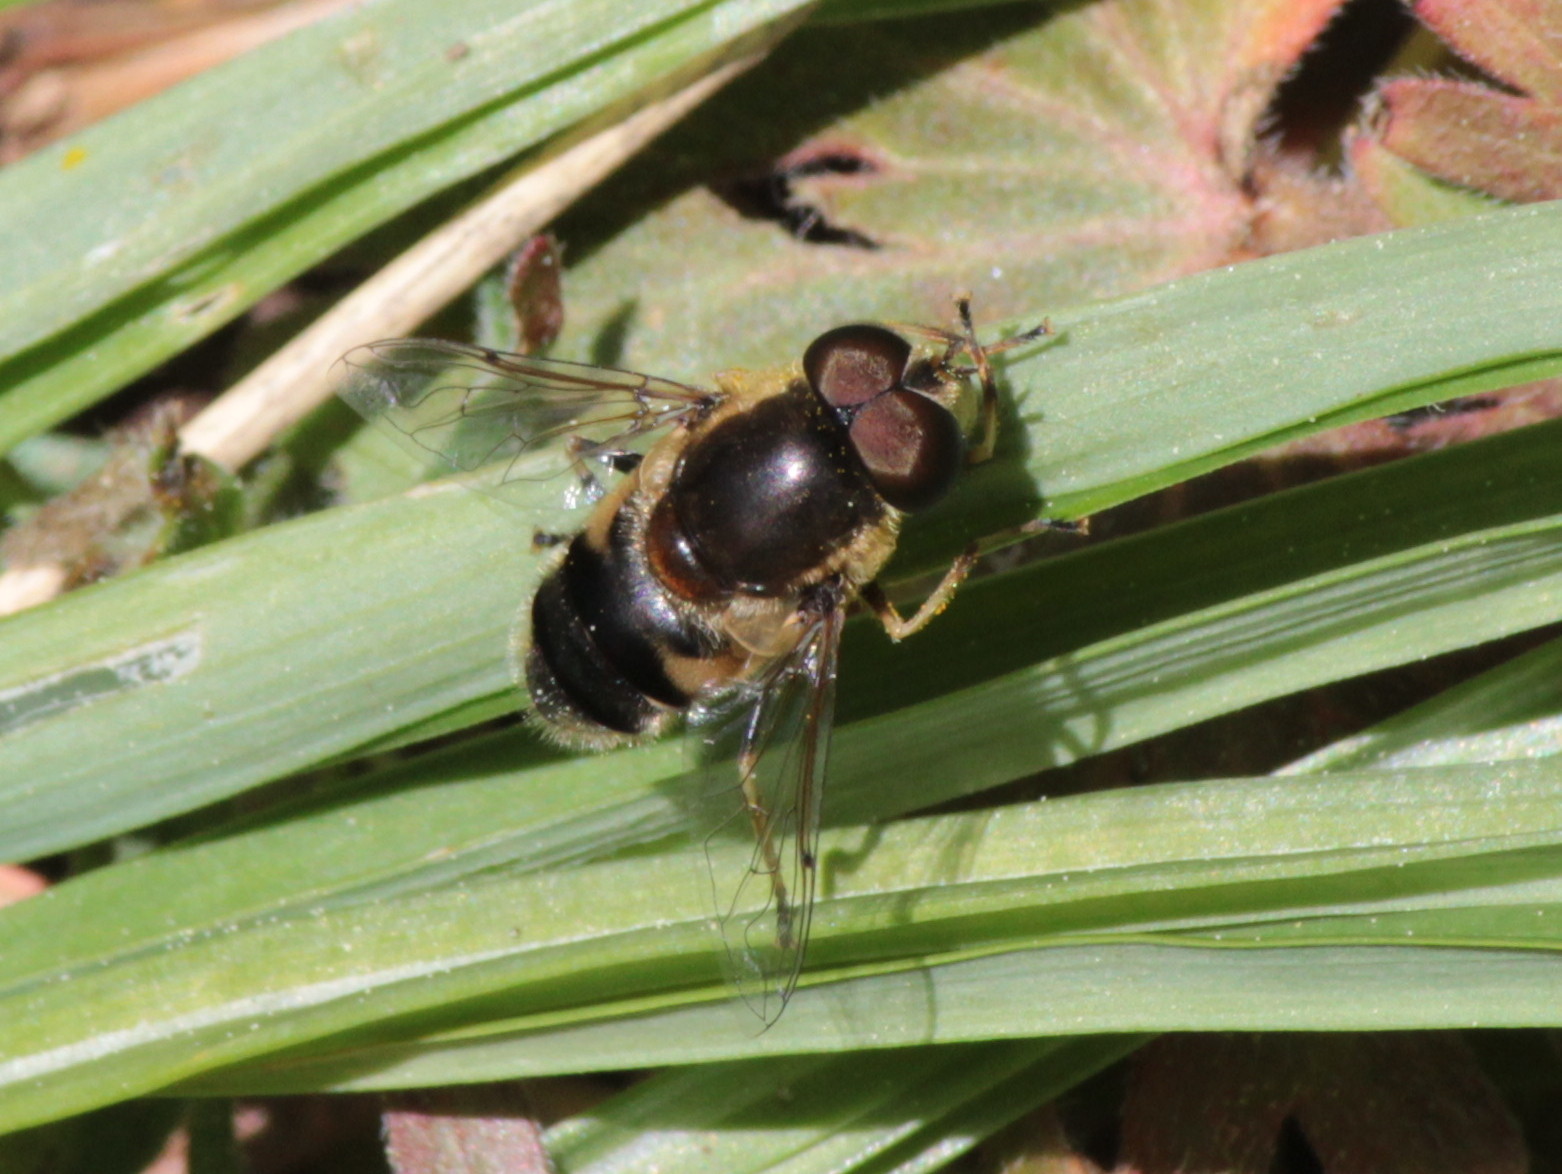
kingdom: Animalia
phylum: Arthropoda
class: Insecta
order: Diptera
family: Syrphidae
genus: Eristalis
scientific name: Eristalis obscura
